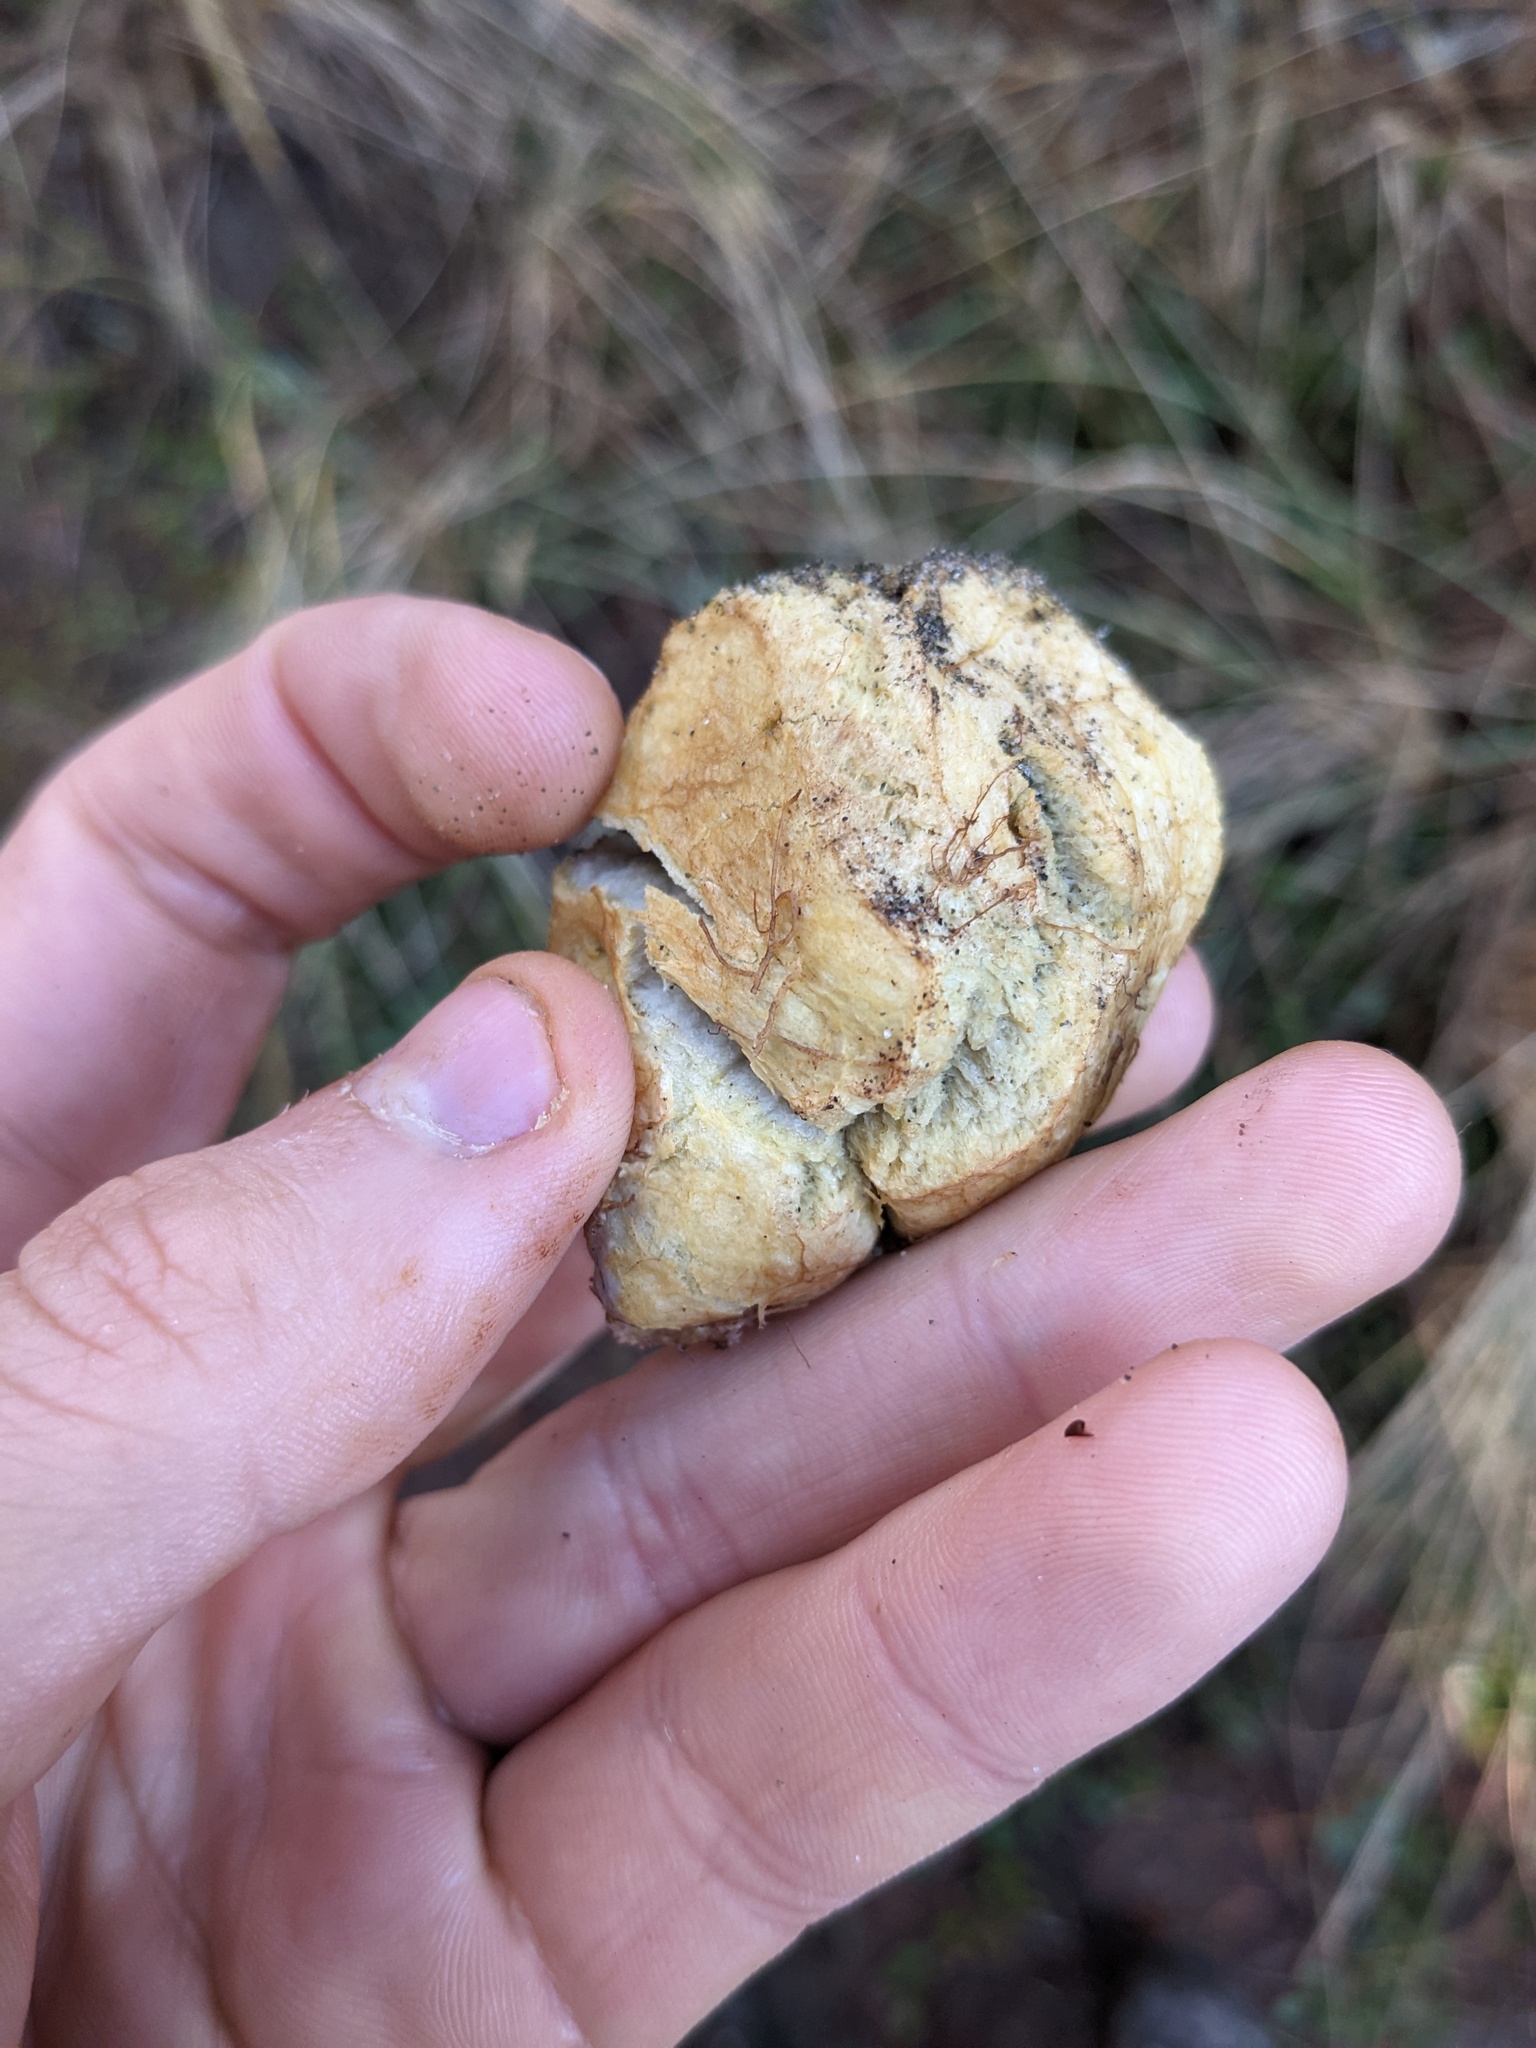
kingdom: Fungi
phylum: Basidiomycota
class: Agaricomycetes
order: Boletales
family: Rhizopogonaceae
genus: Rhizopogon
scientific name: Rhizopogon occidentalis
